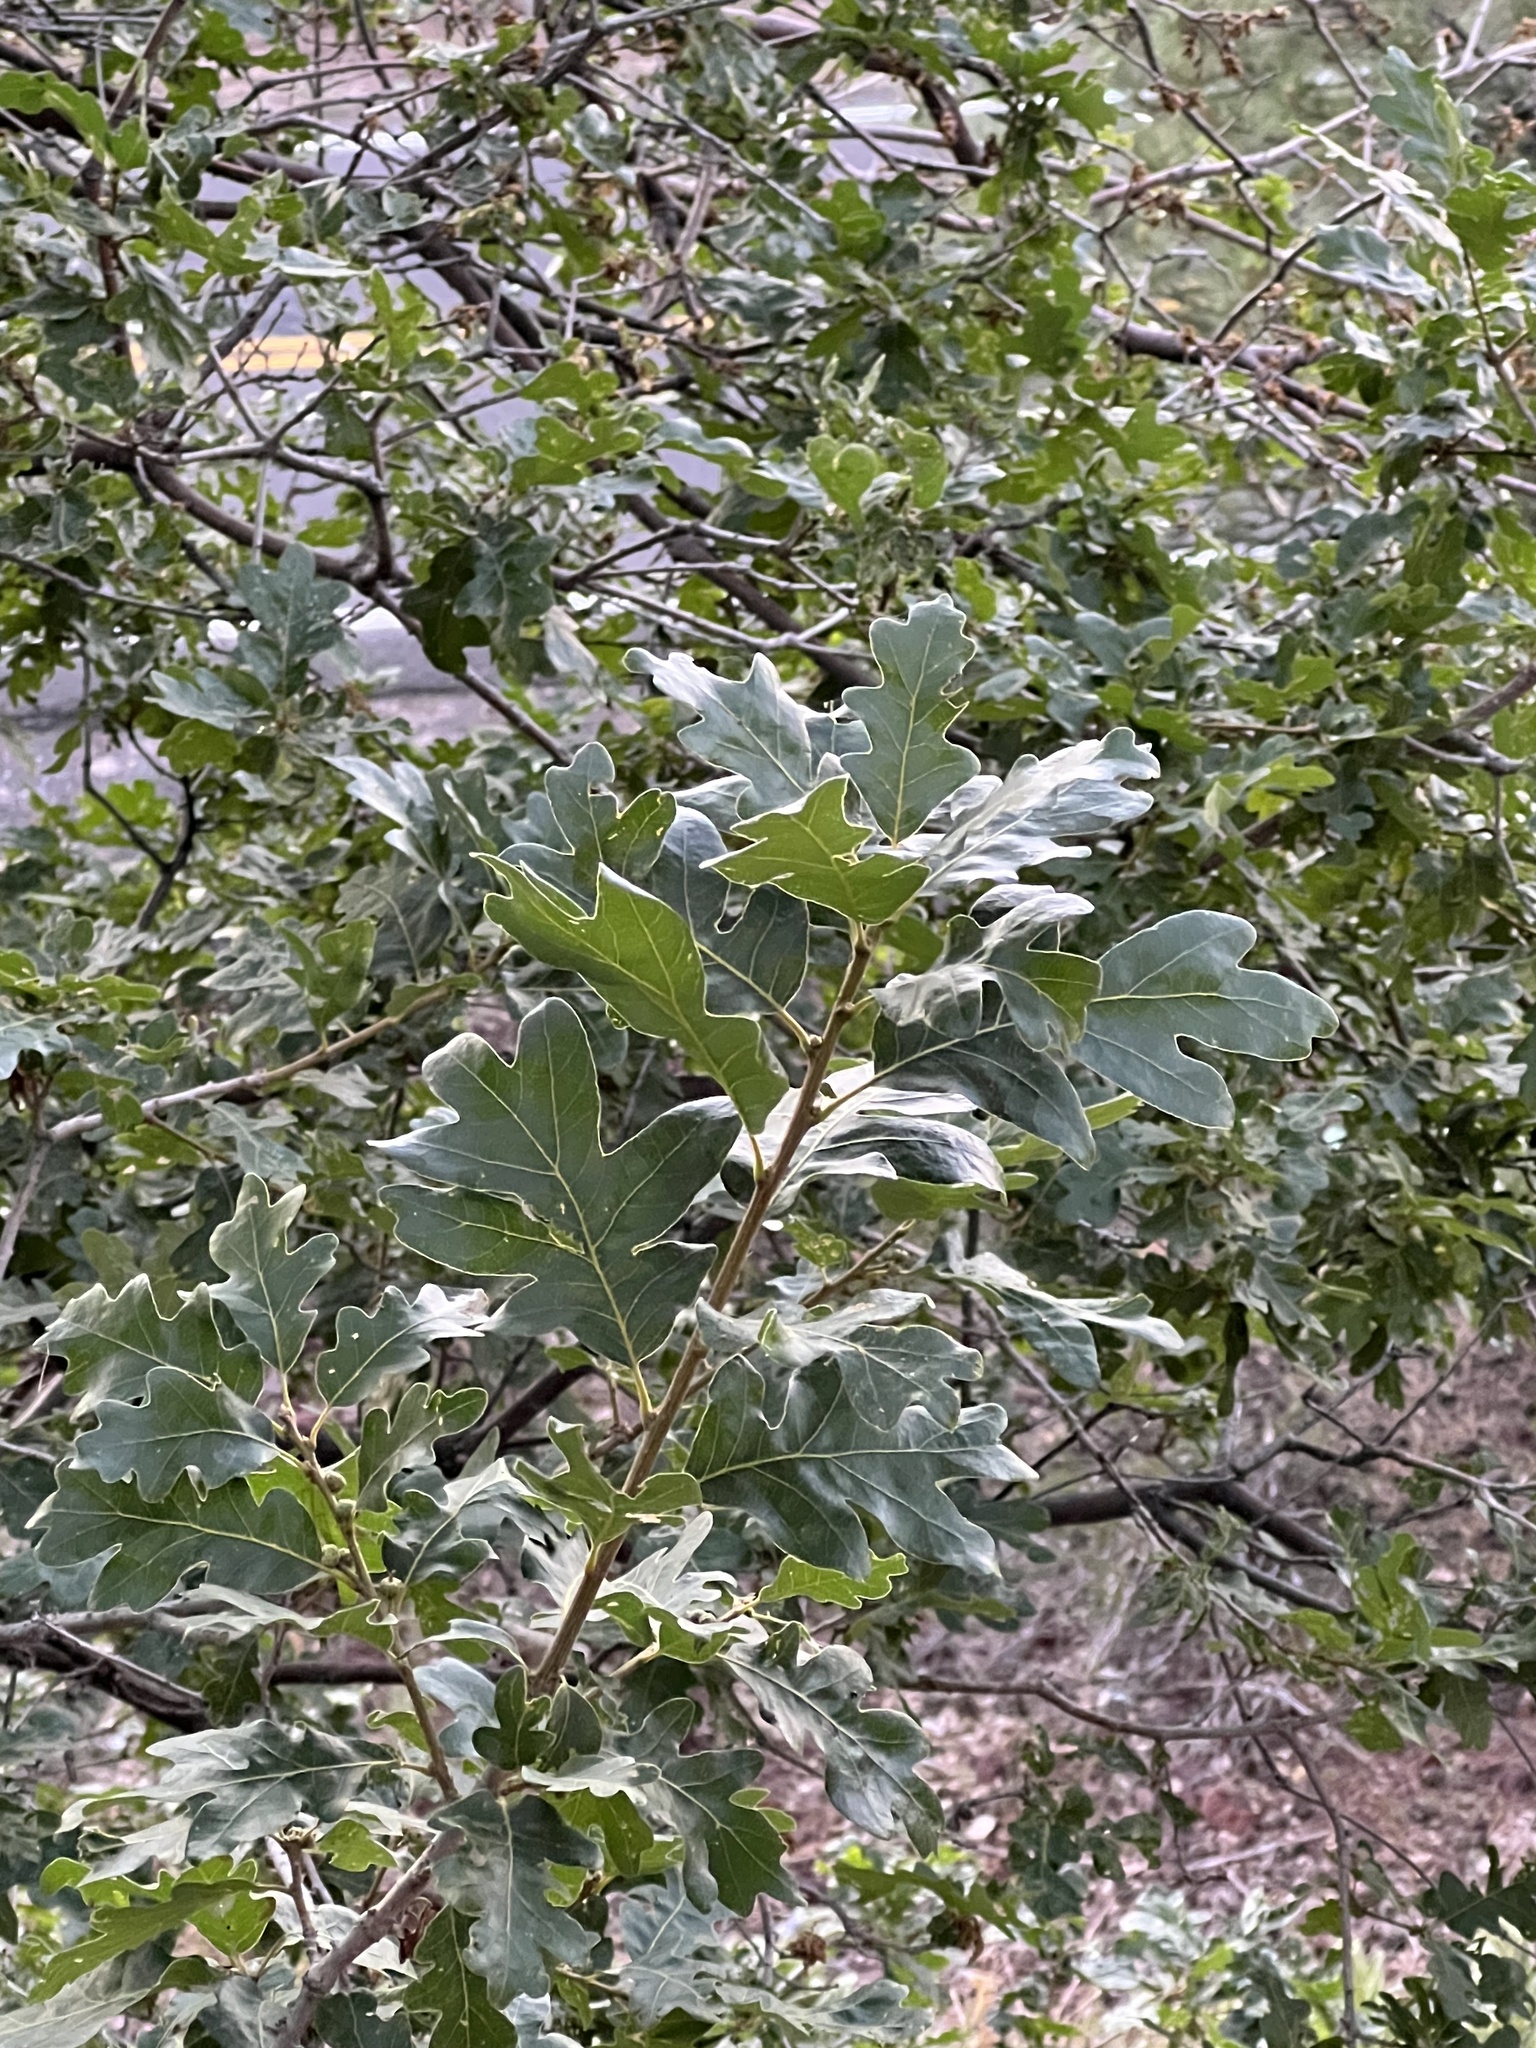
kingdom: Plantae
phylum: Tracheophyta
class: Magnoliopsida
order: Fagales
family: Fagaceae
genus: Quercus
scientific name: Quercus gambelii
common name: Gambel oak
